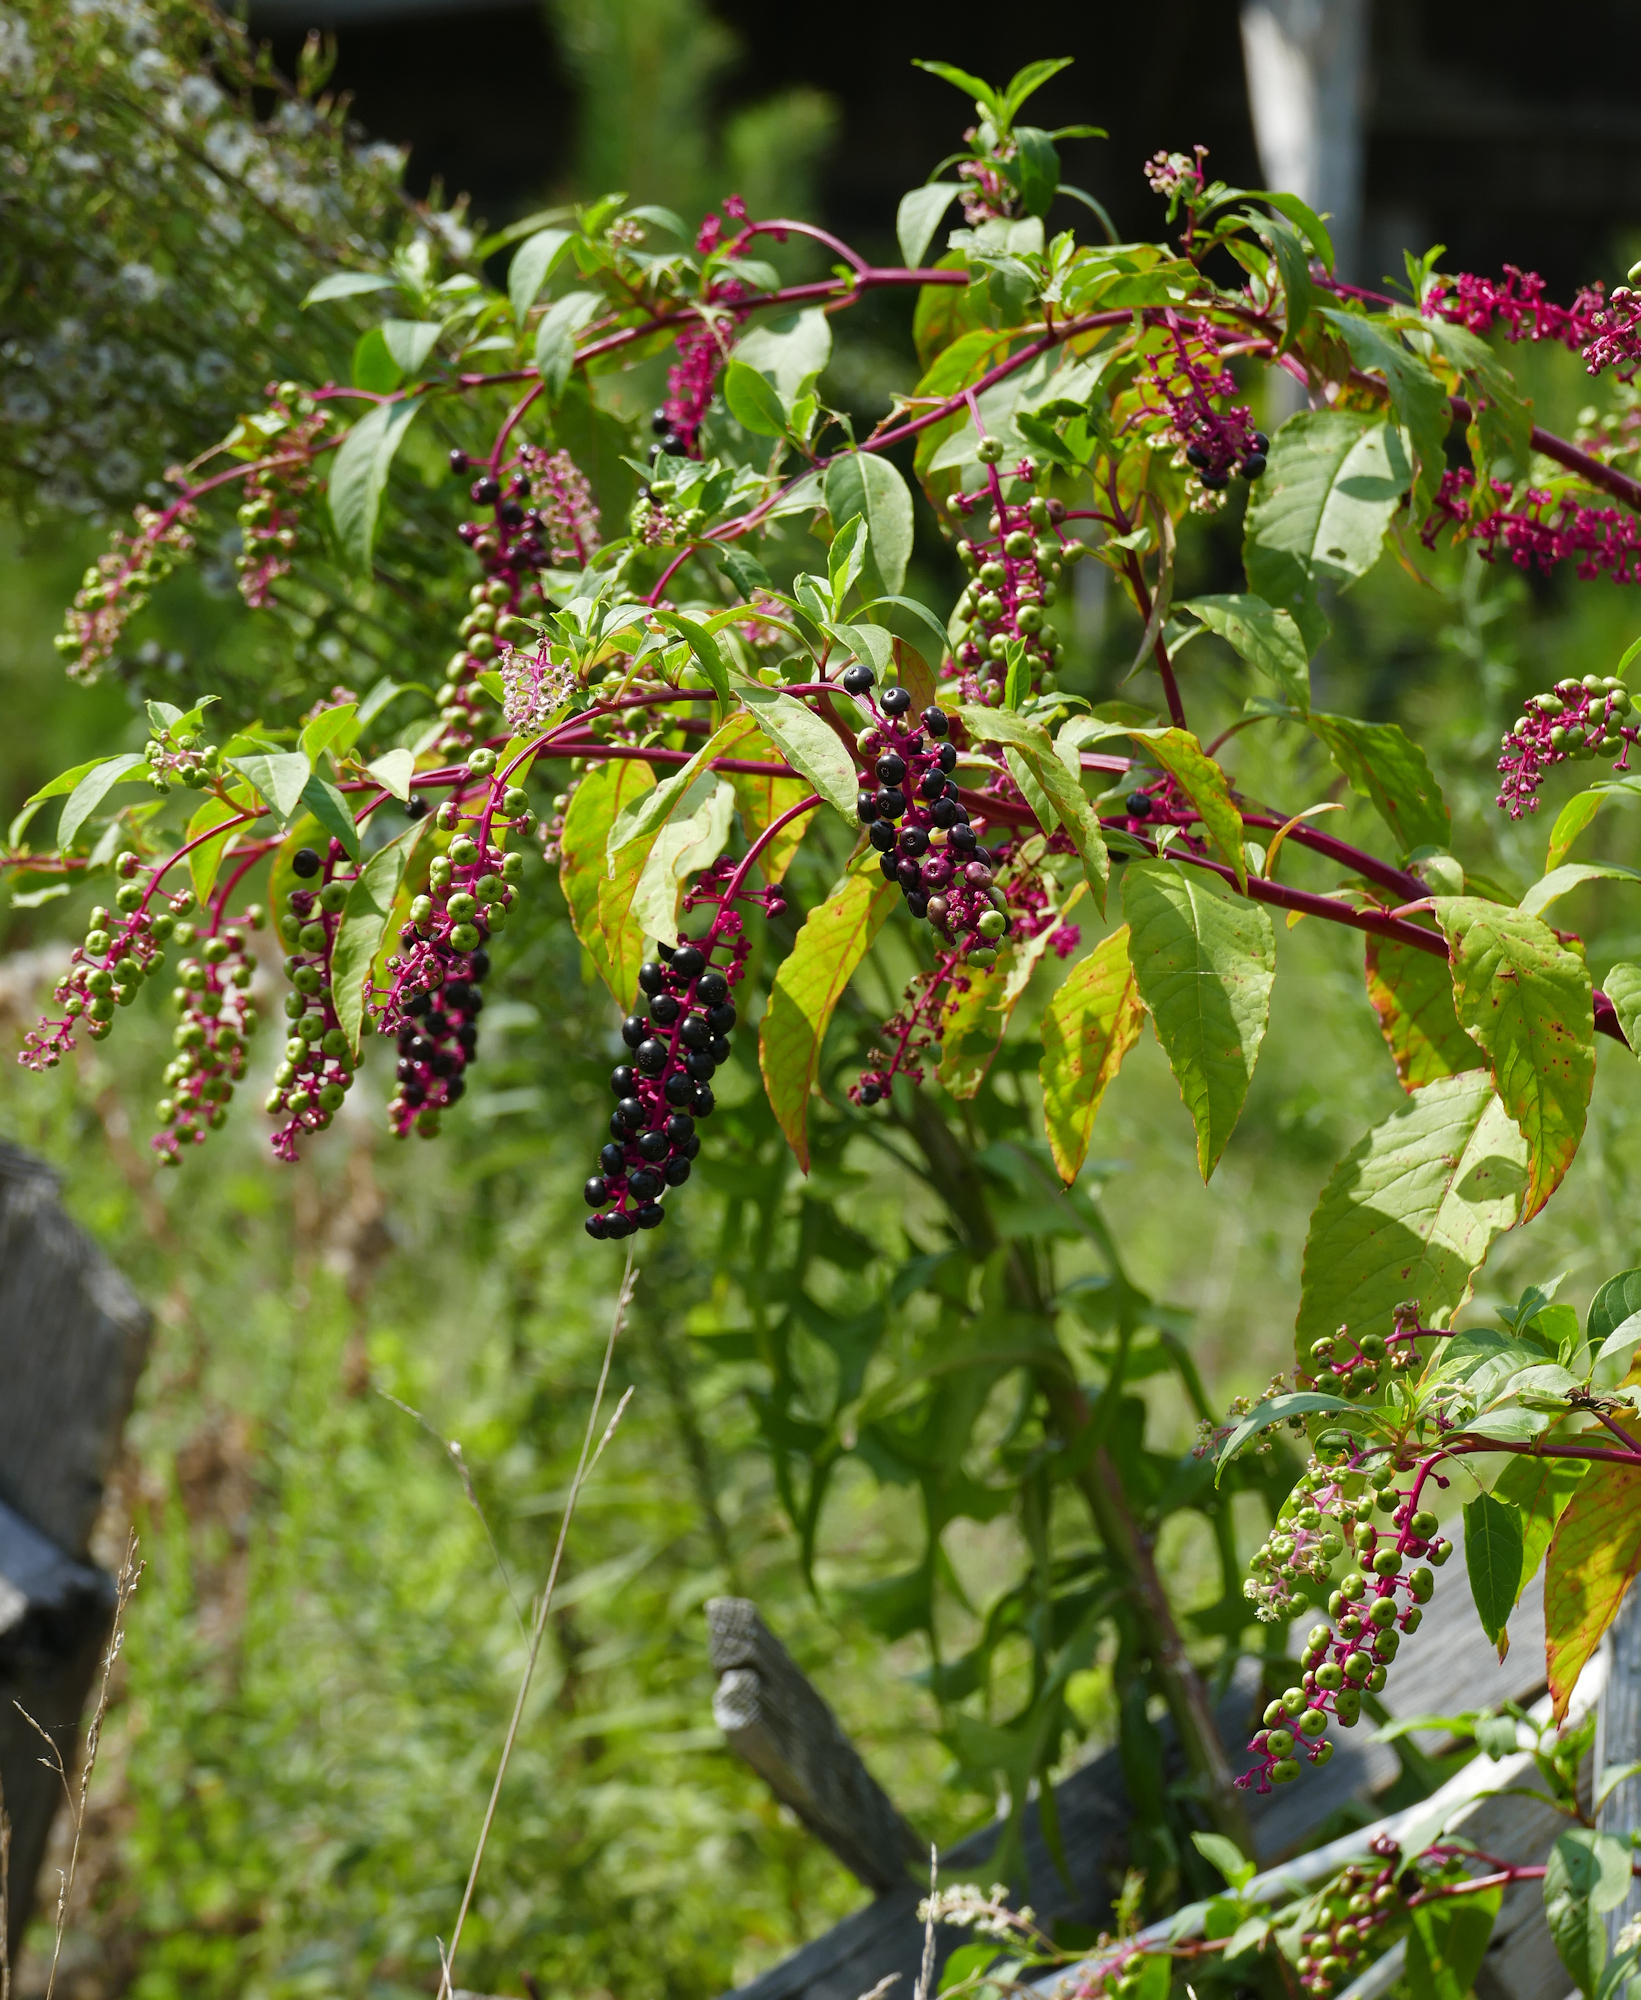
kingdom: Plantae
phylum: Tracheophyta
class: Magnoliopsida
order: Caryophyllales
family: Phytolaccaceae
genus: Phytolacca
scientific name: Phytolacca americana
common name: American pokeweed
